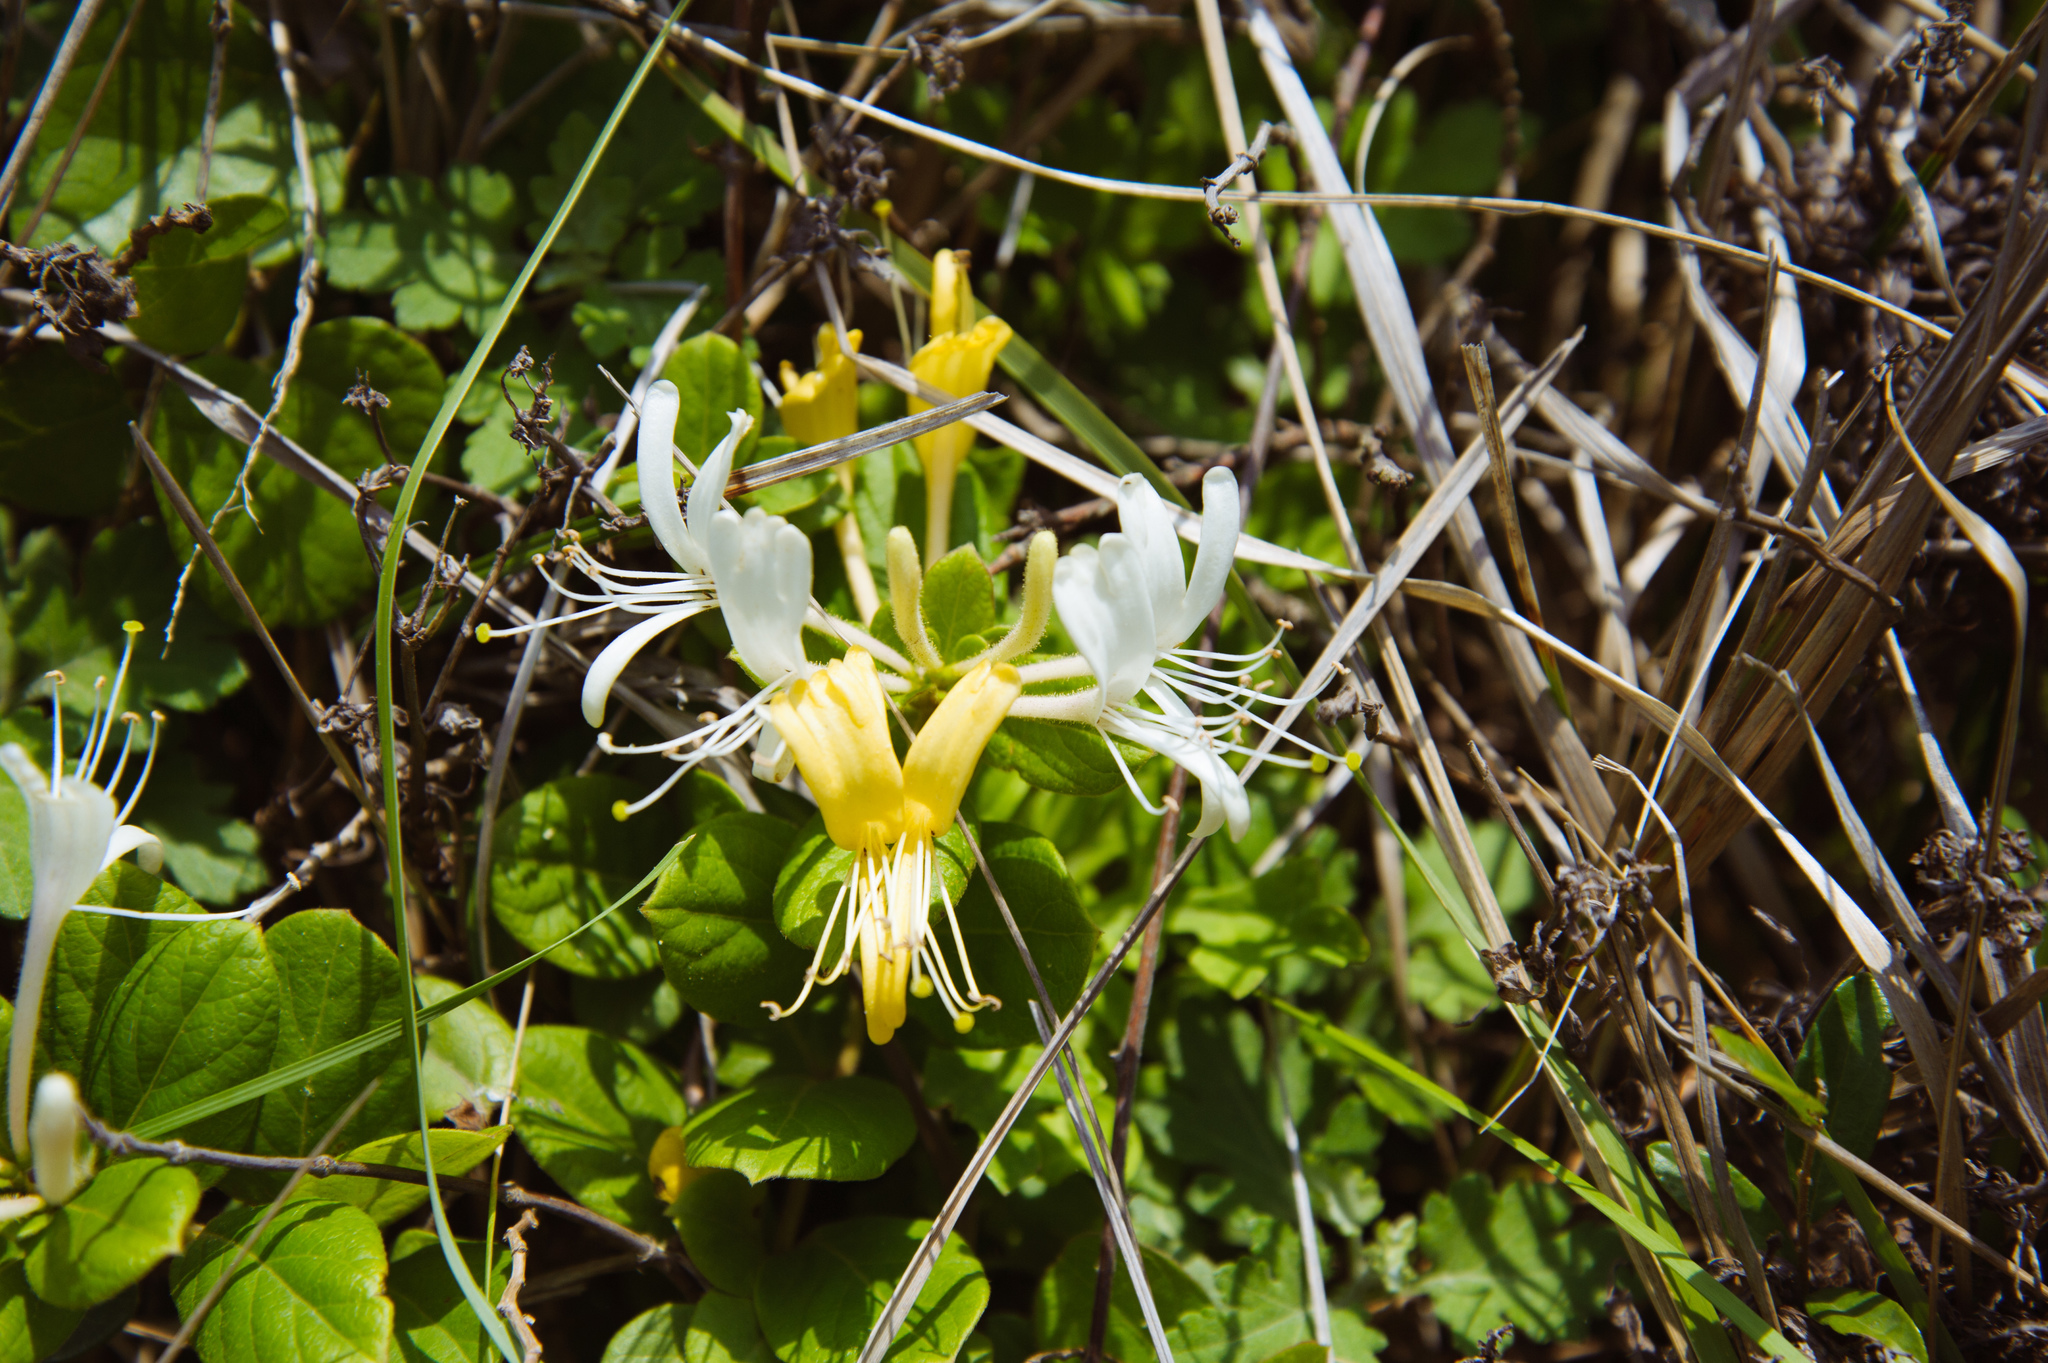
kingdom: Plantae
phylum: Tracheophyta
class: Magnoliopsida
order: Dipsacales
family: Caprifoliaceae
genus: Lonicera
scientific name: Lonicera japonica
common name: Japanese honeysuckle
